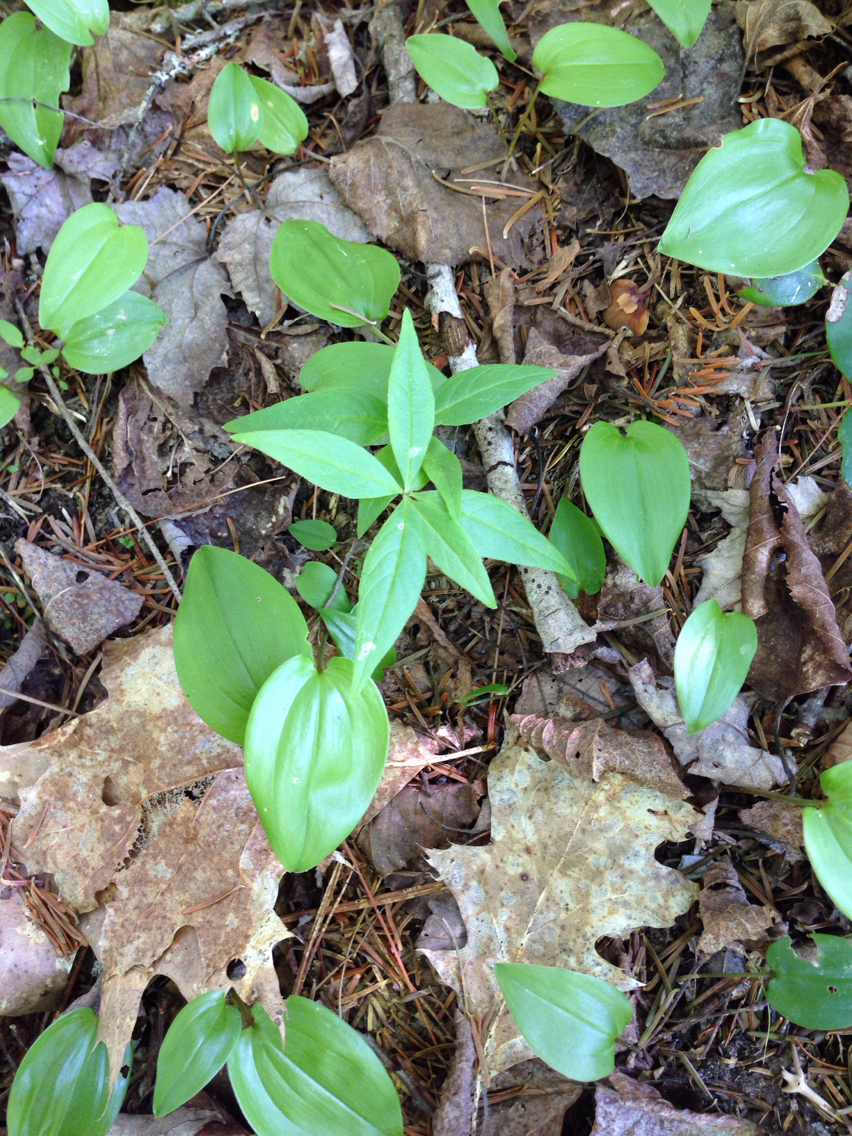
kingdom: Plantae
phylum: Tracheophyta
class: Magnoliopsida
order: Ericales
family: Primulaceae
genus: Lysimachia
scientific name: Lysimachia borealis
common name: American starflower
